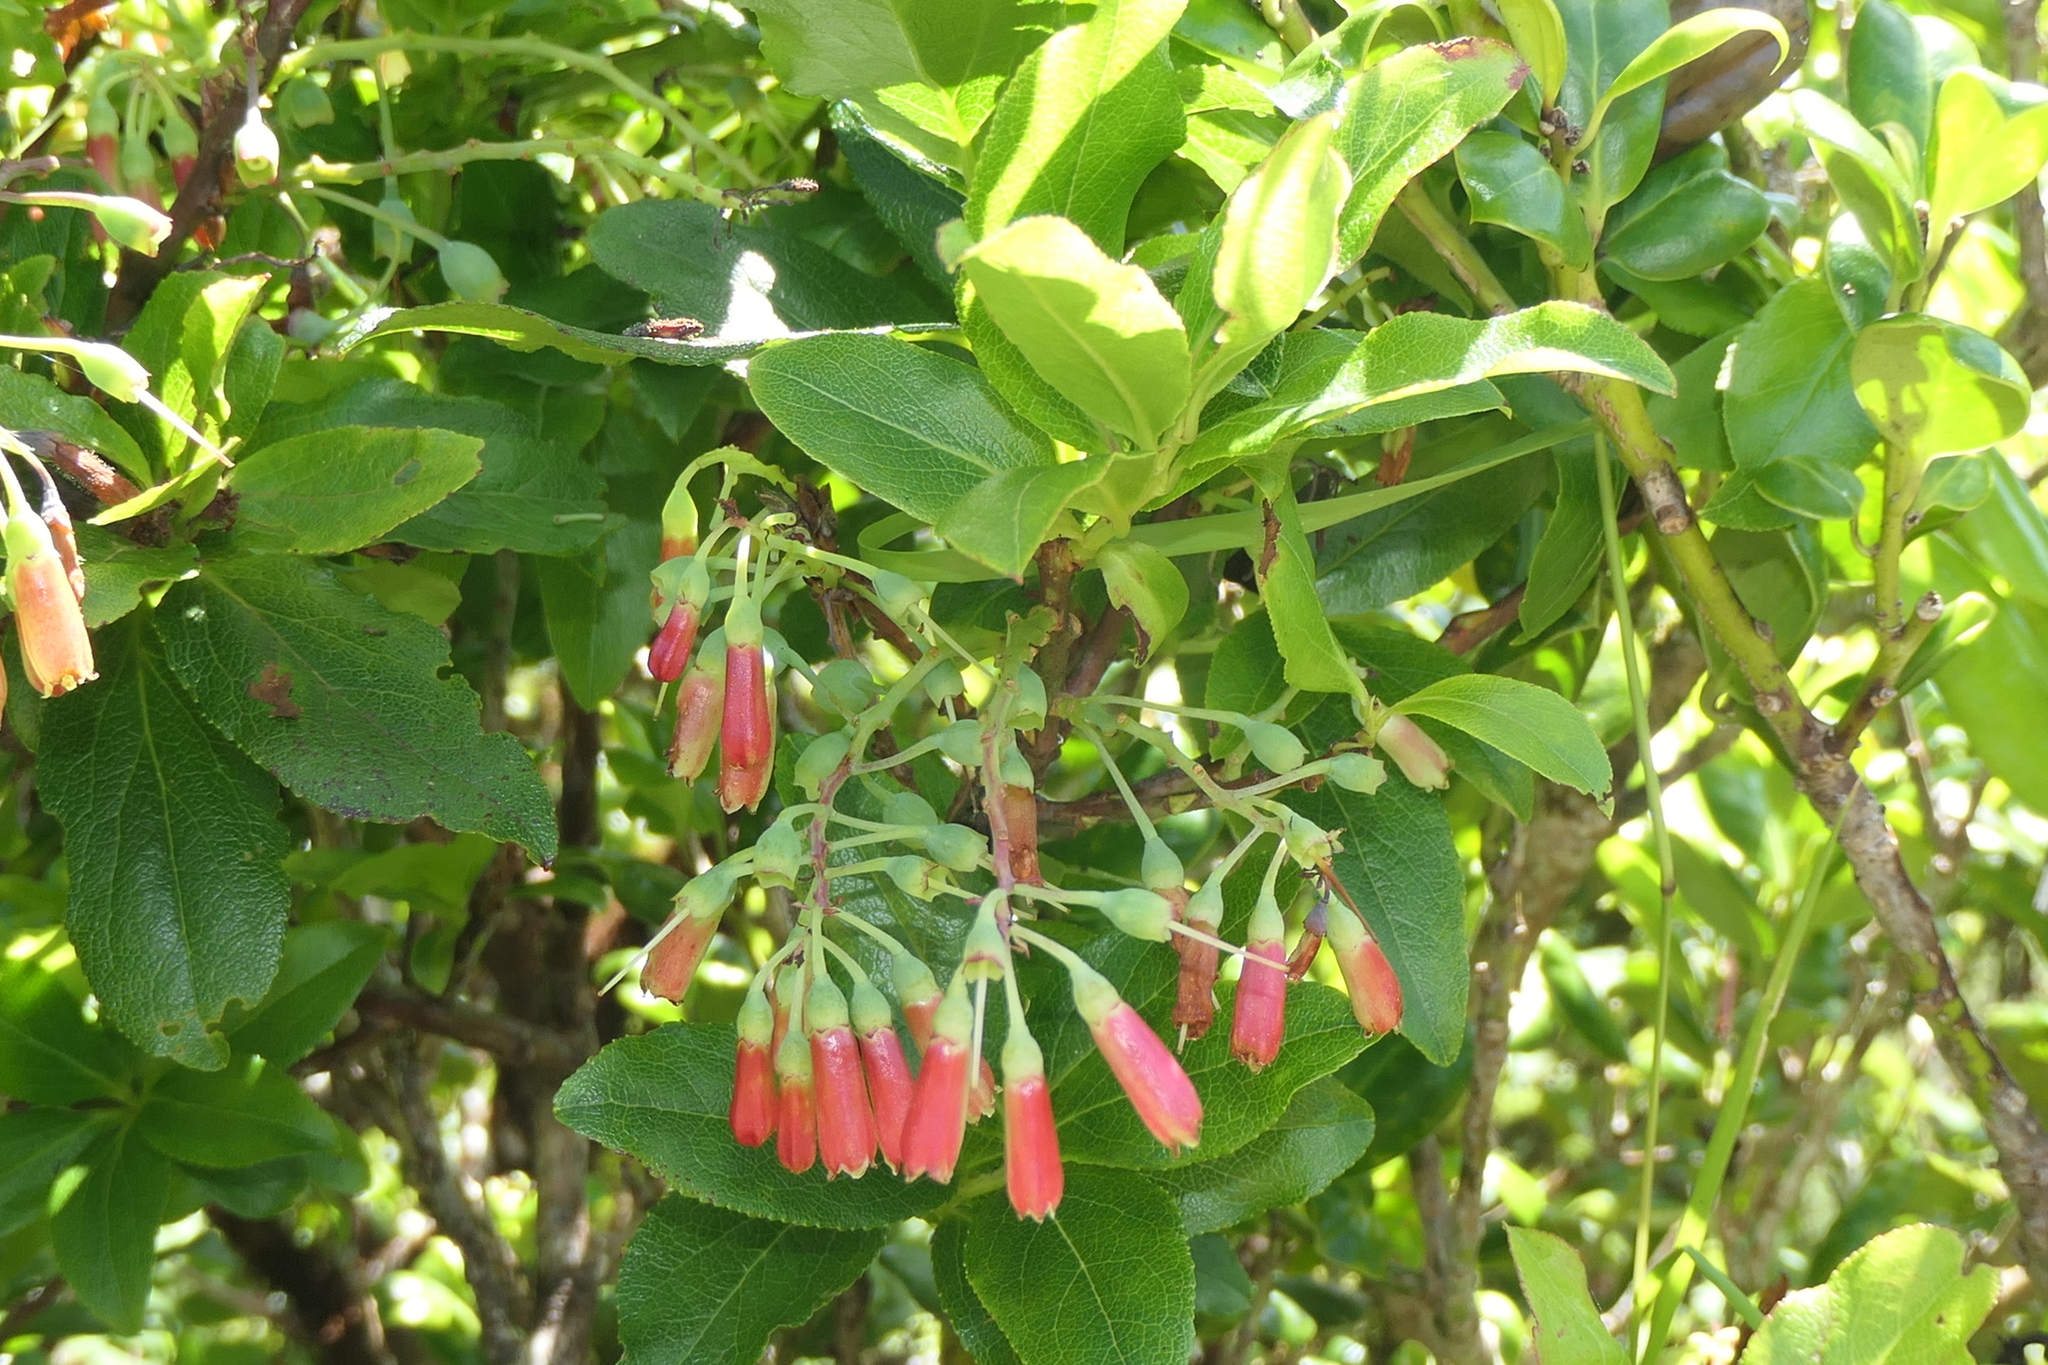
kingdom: Plantae
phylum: Tracheophyta
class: Magnoliopsida
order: Ericales
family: Ericaceae
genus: Vaccinium
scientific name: Vaccinium cylindraceum
